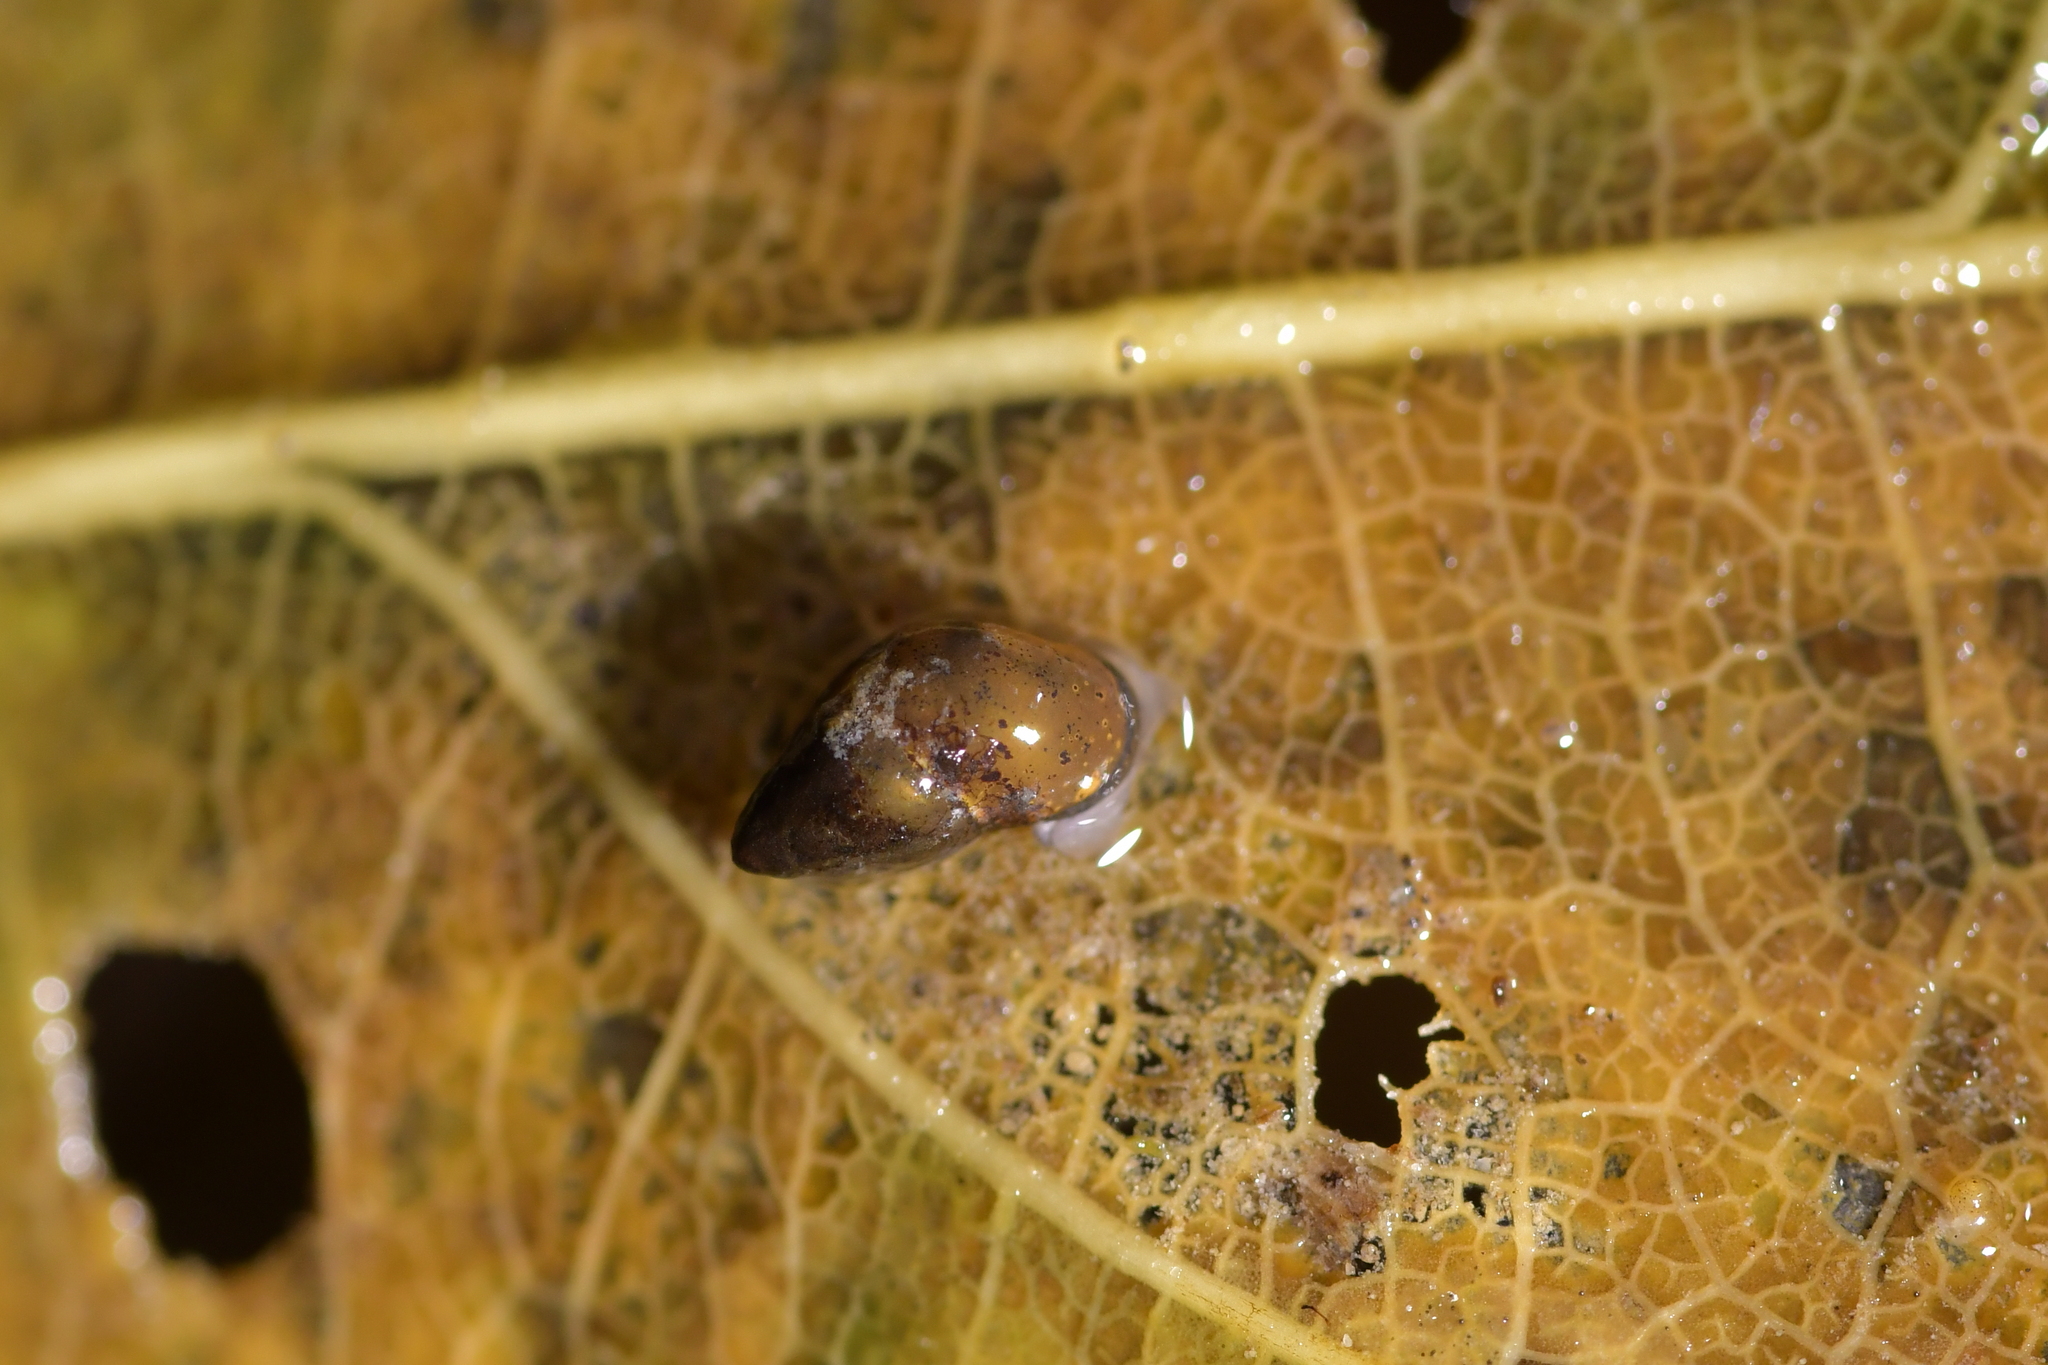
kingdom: Animalia
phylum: Mollusca
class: Gastropoda
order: Littorinimorpha
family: Tateidae
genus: Potamopyrgus
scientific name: Potamopyrgus antipodarum
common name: Jenkins' spire snail
